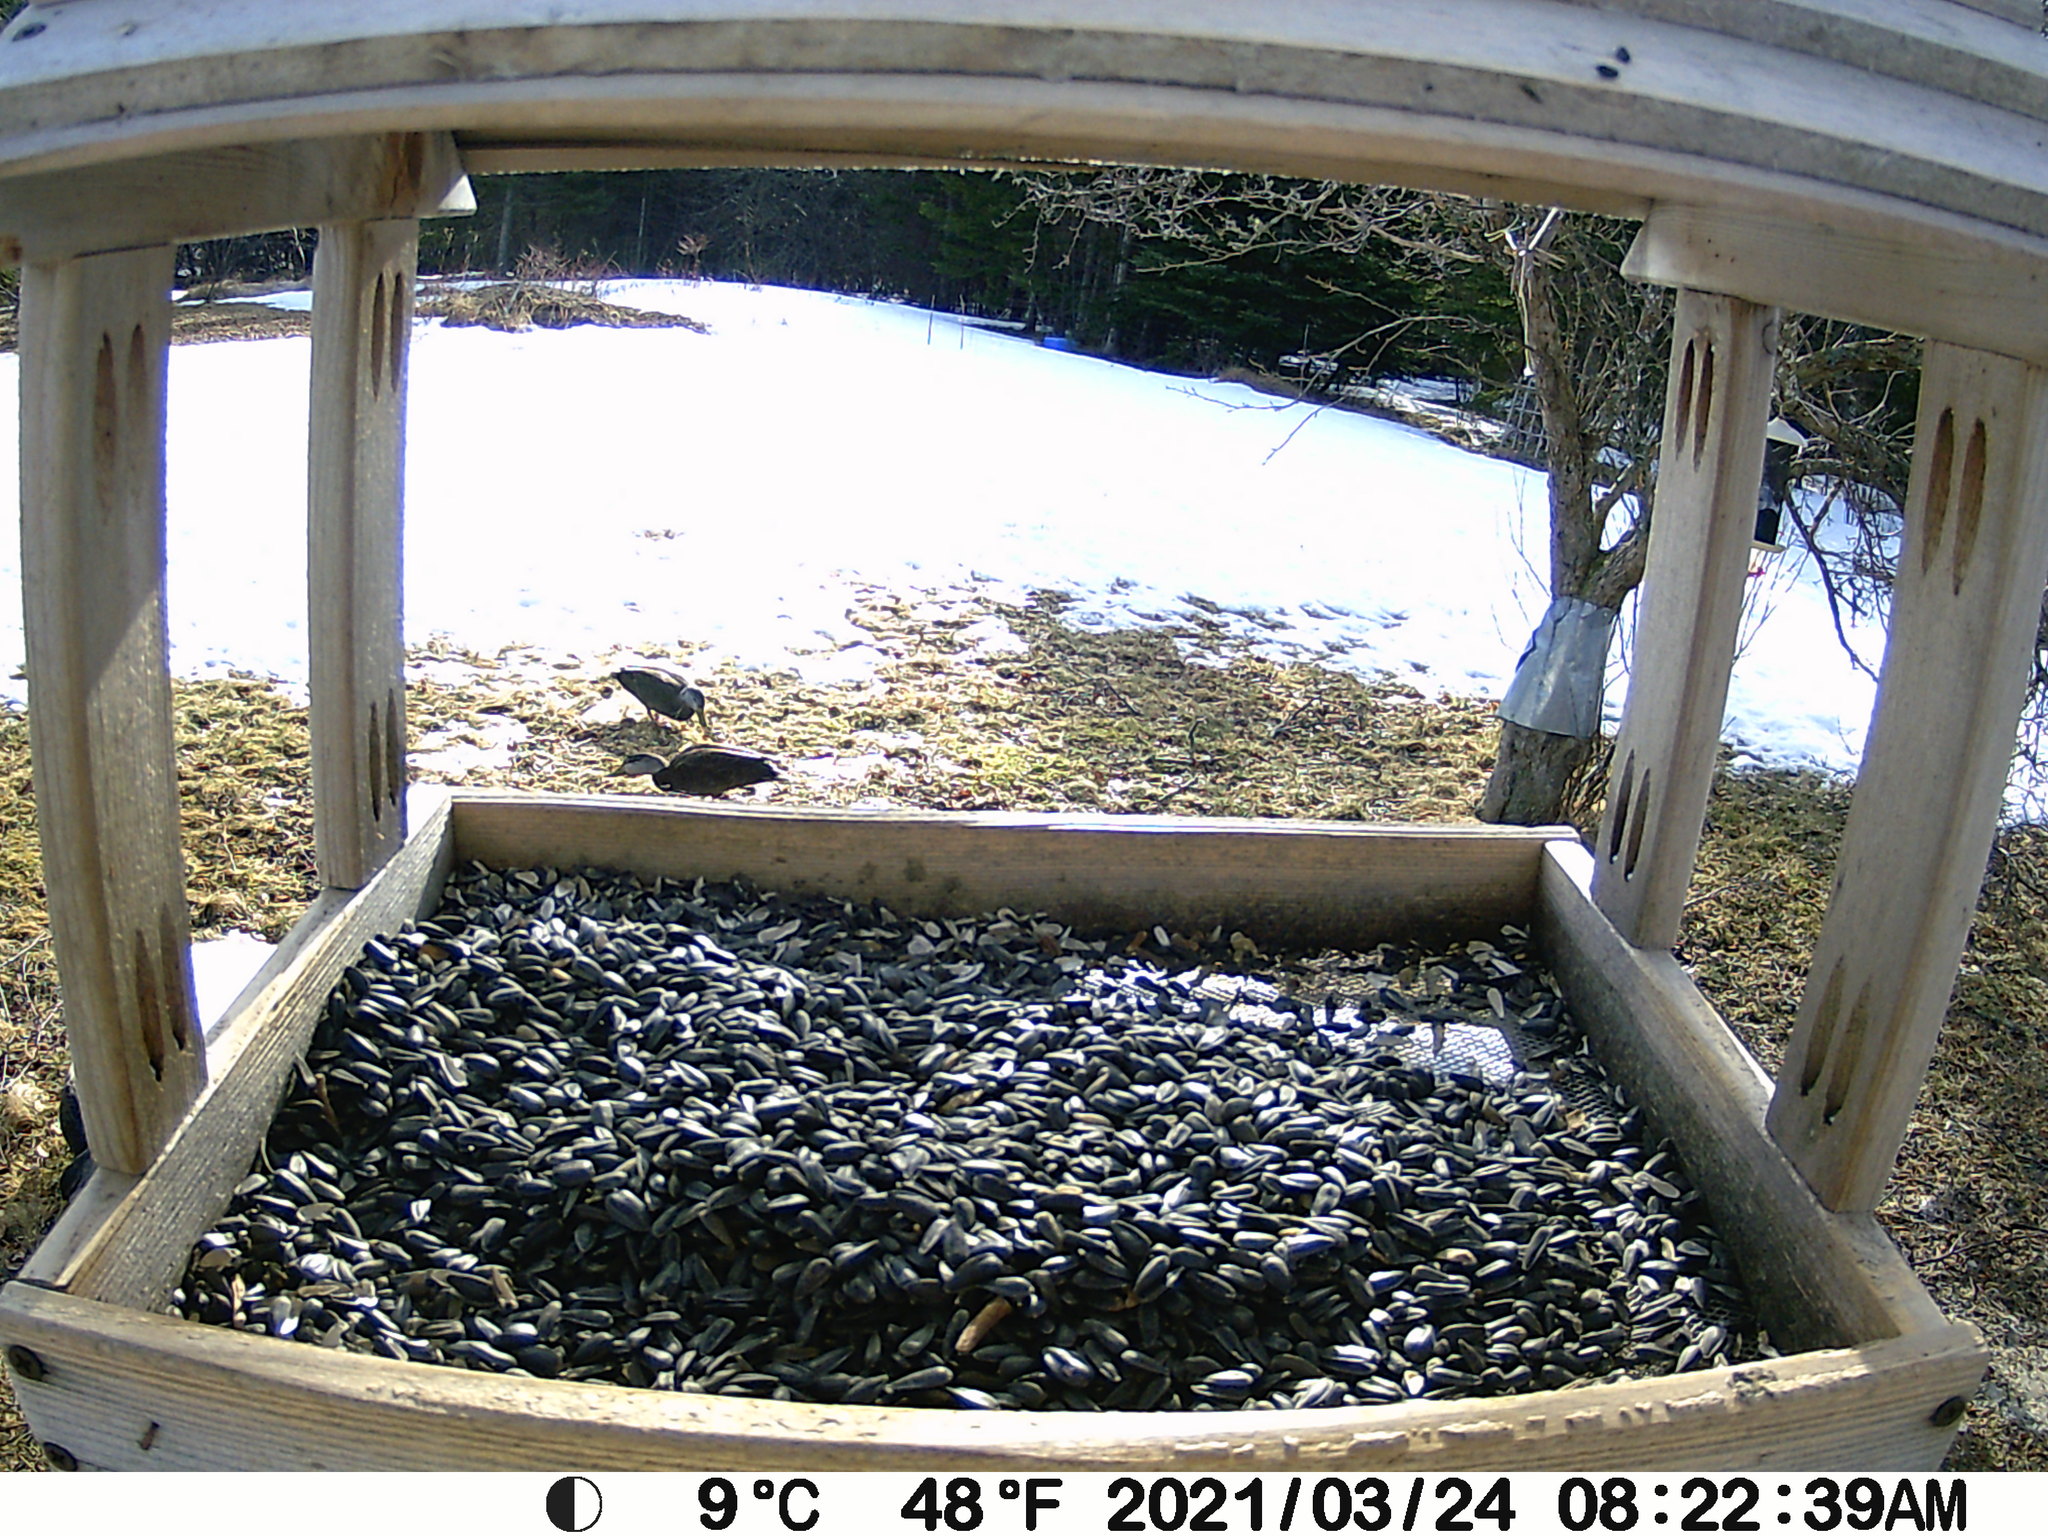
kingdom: Animalia
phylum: Chordata
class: Aves
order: Anseriformes
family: Anatidae
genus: Anas
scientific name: Anas rubripes
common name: American black duck
